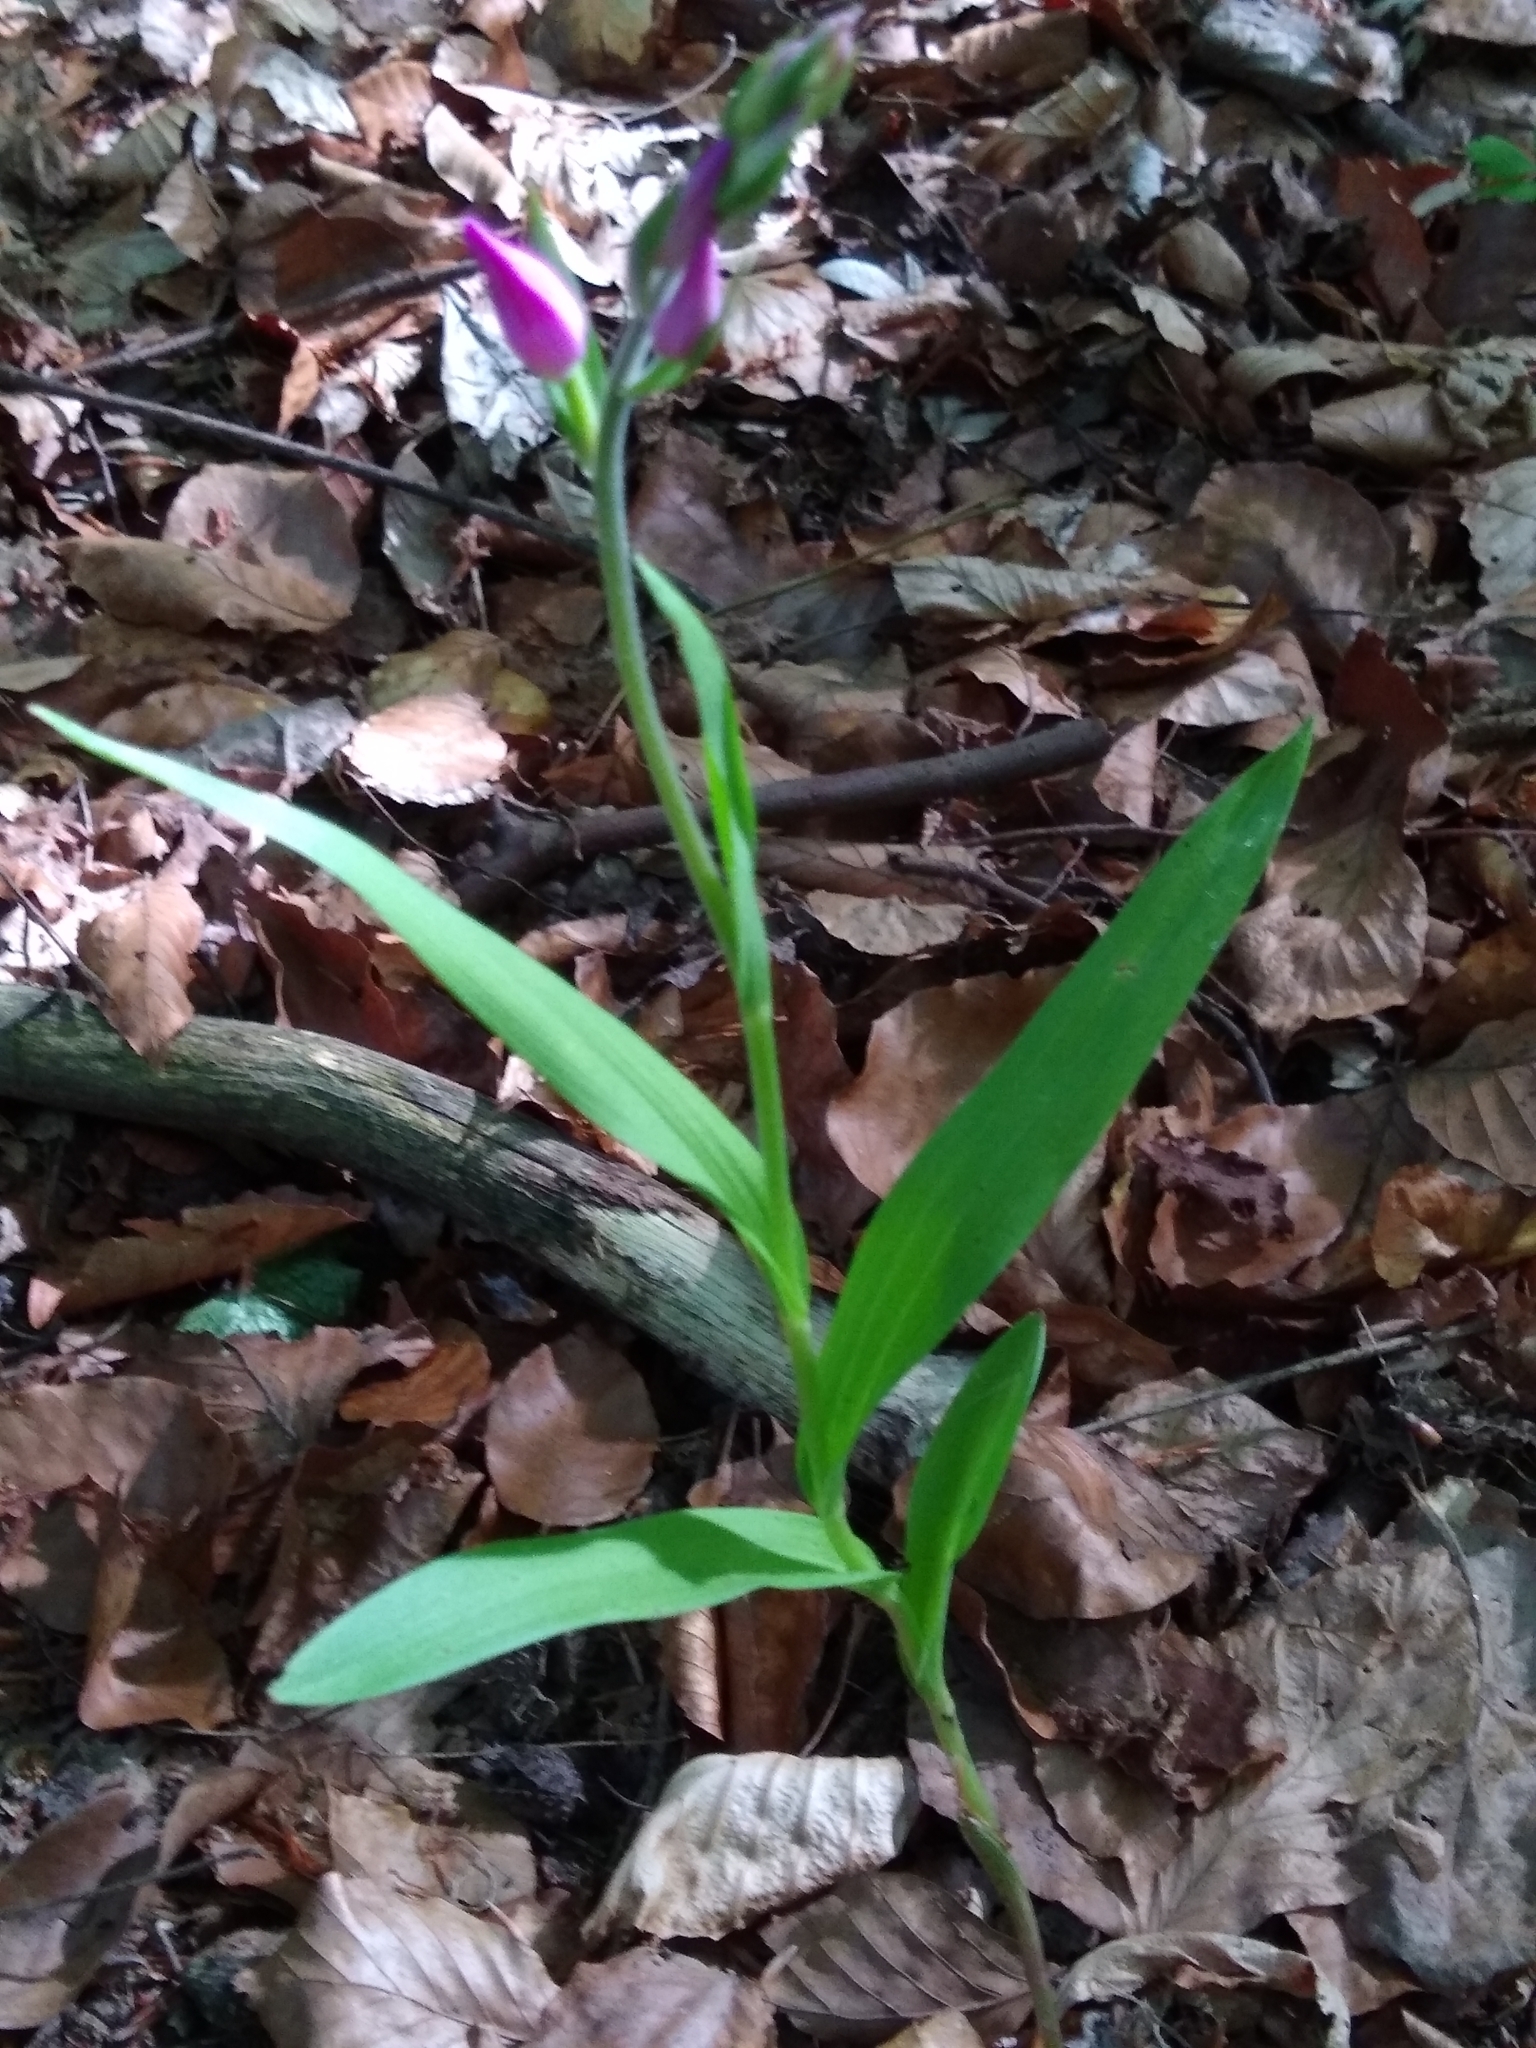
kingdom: Plantae
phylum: Tracheophyta
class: Liliopsida
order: Asparagales
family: Orchidaceae
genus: Cephalanthera
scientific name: Cephalanthera rubra
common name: Red helleborine
